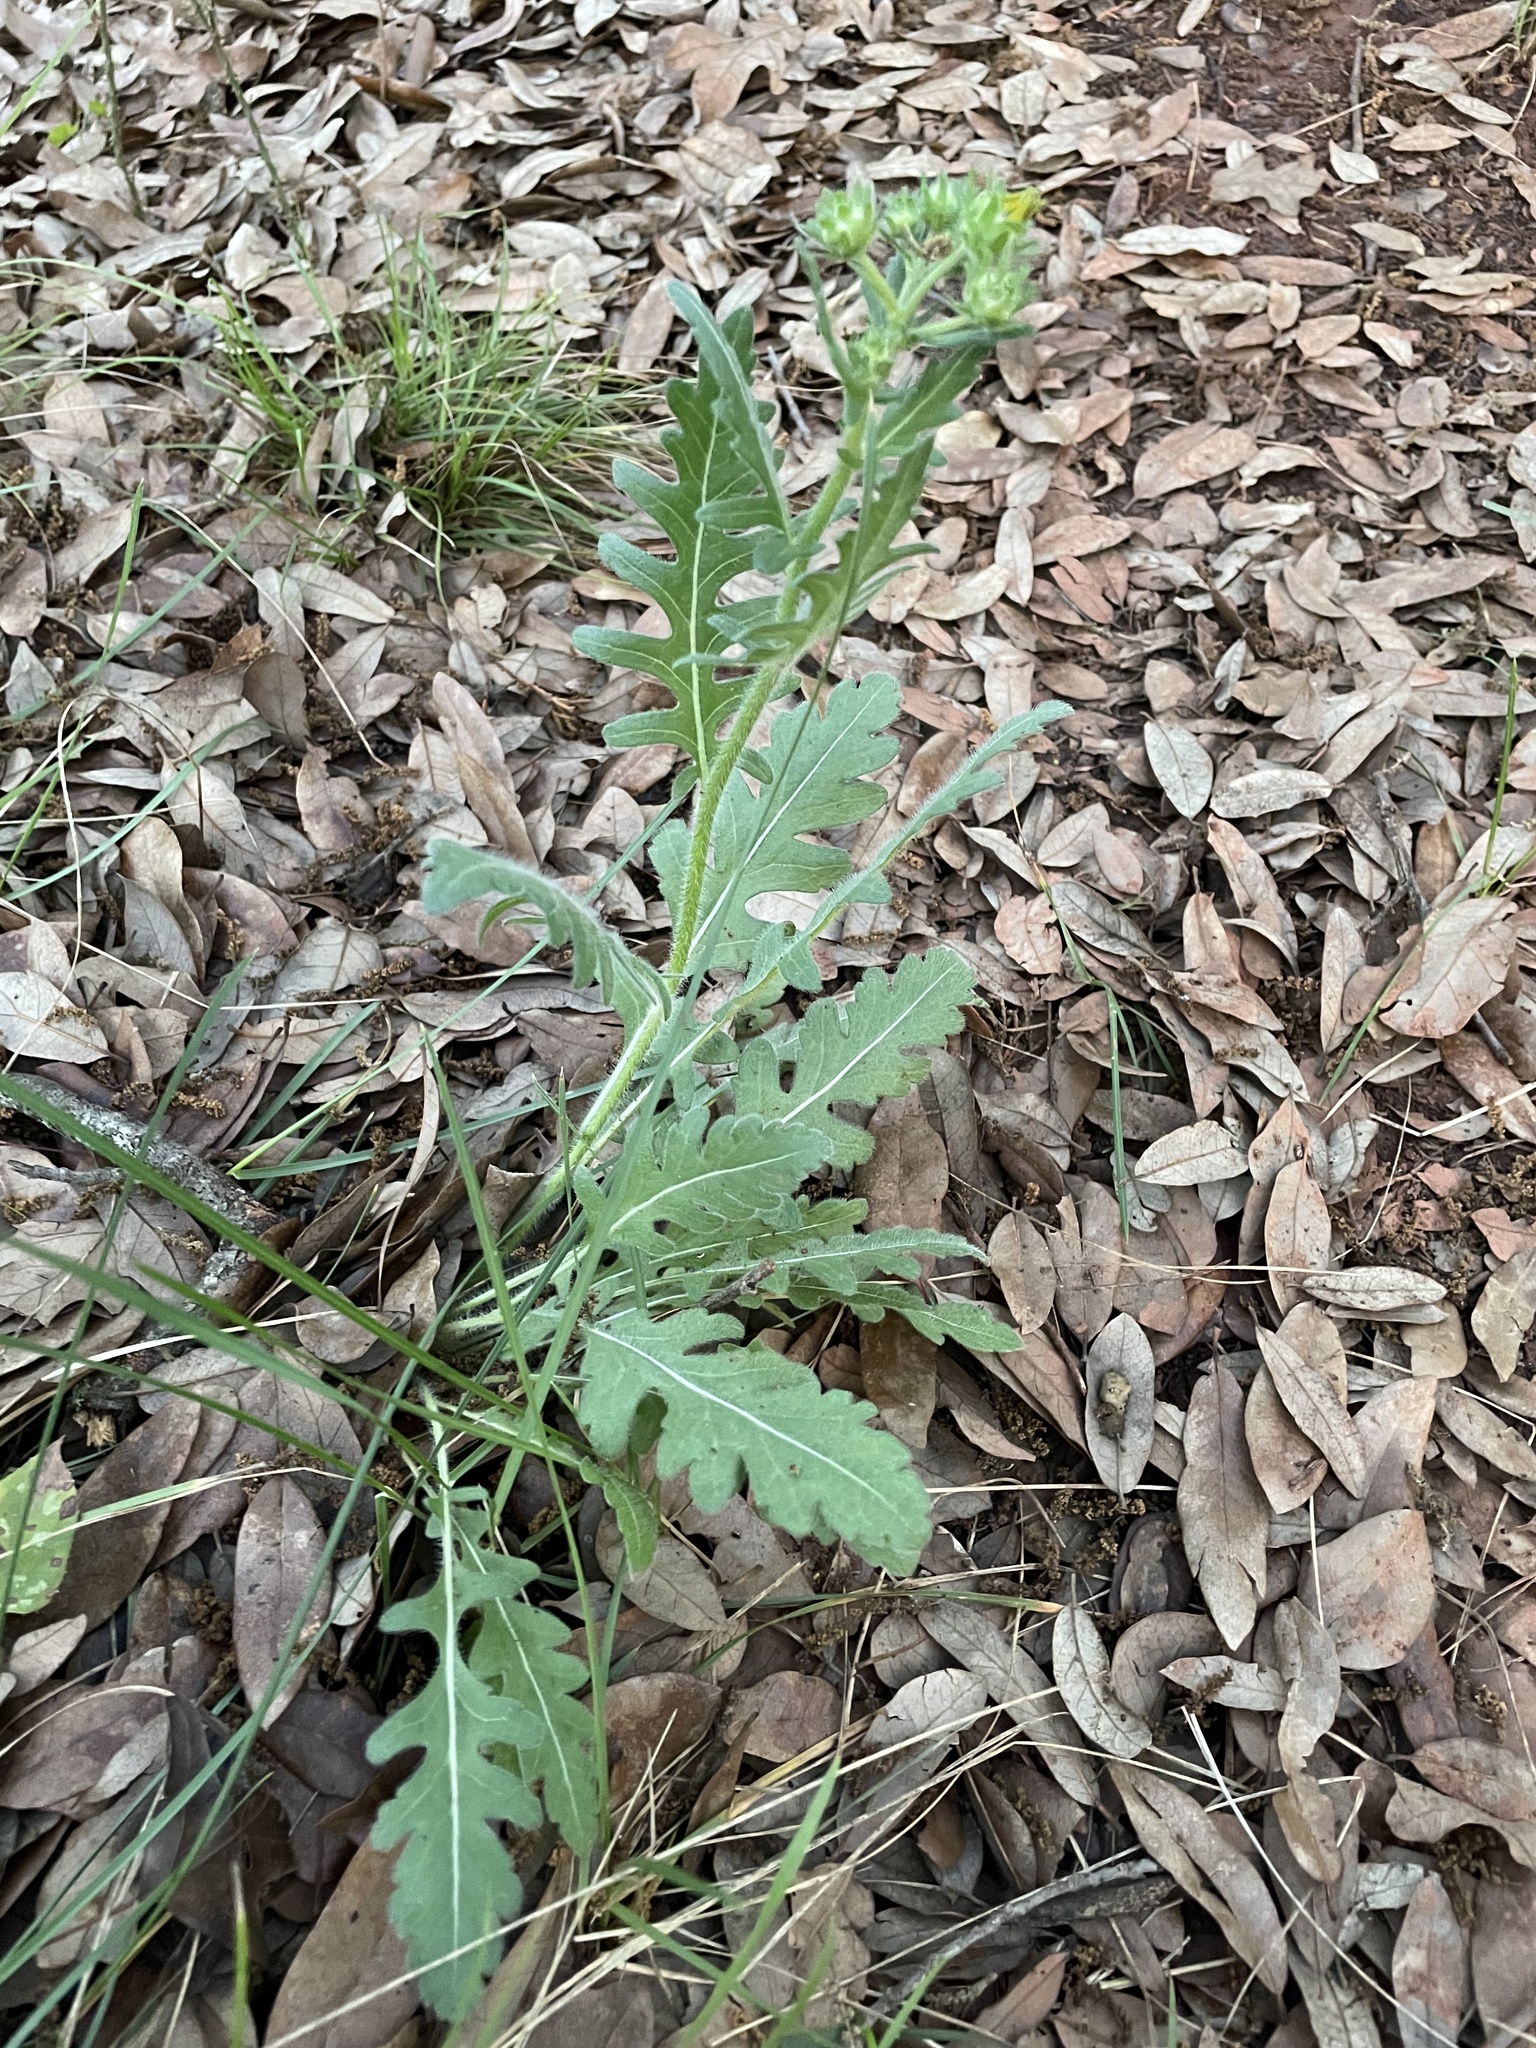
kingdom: Plantae
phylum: Tracheophyta
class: Magnoliopsida
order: Asterales
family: Asteraceae
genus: Engelmannia
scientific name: Engelmannia peristenia
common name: Engelmann's daisy
